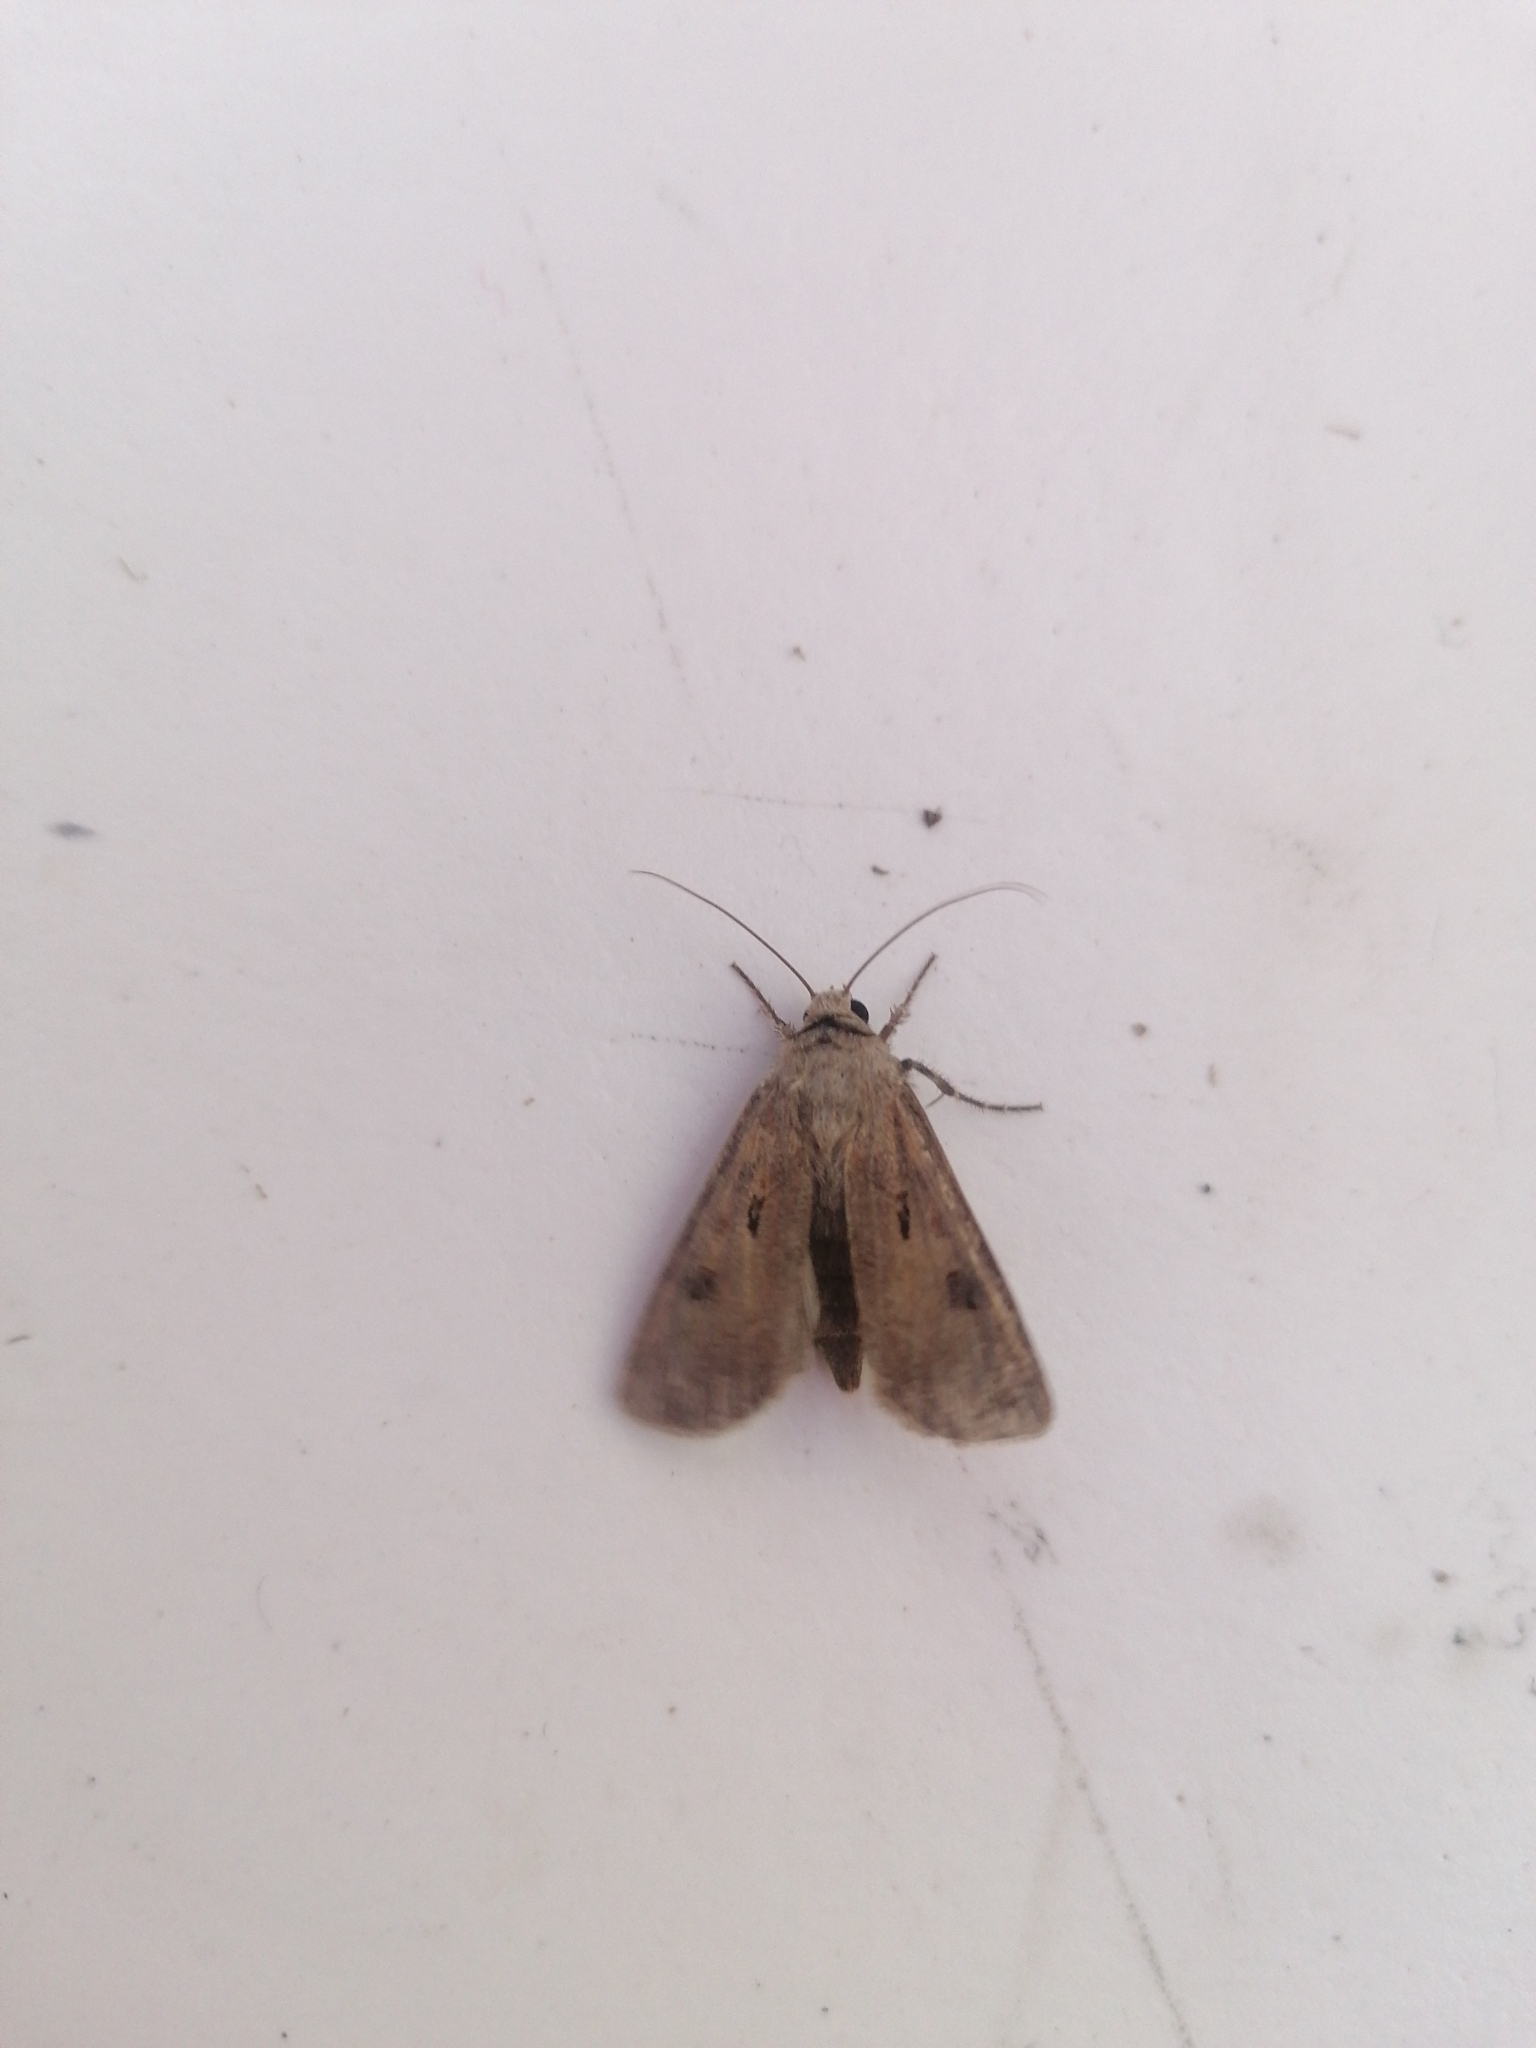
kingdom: Animalia
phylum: Arthropoda
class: Insecta
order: Lepidoptera
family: Noctuidae
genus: Agrotis
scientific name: Agrotis exclamationis
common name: Heart and dart
